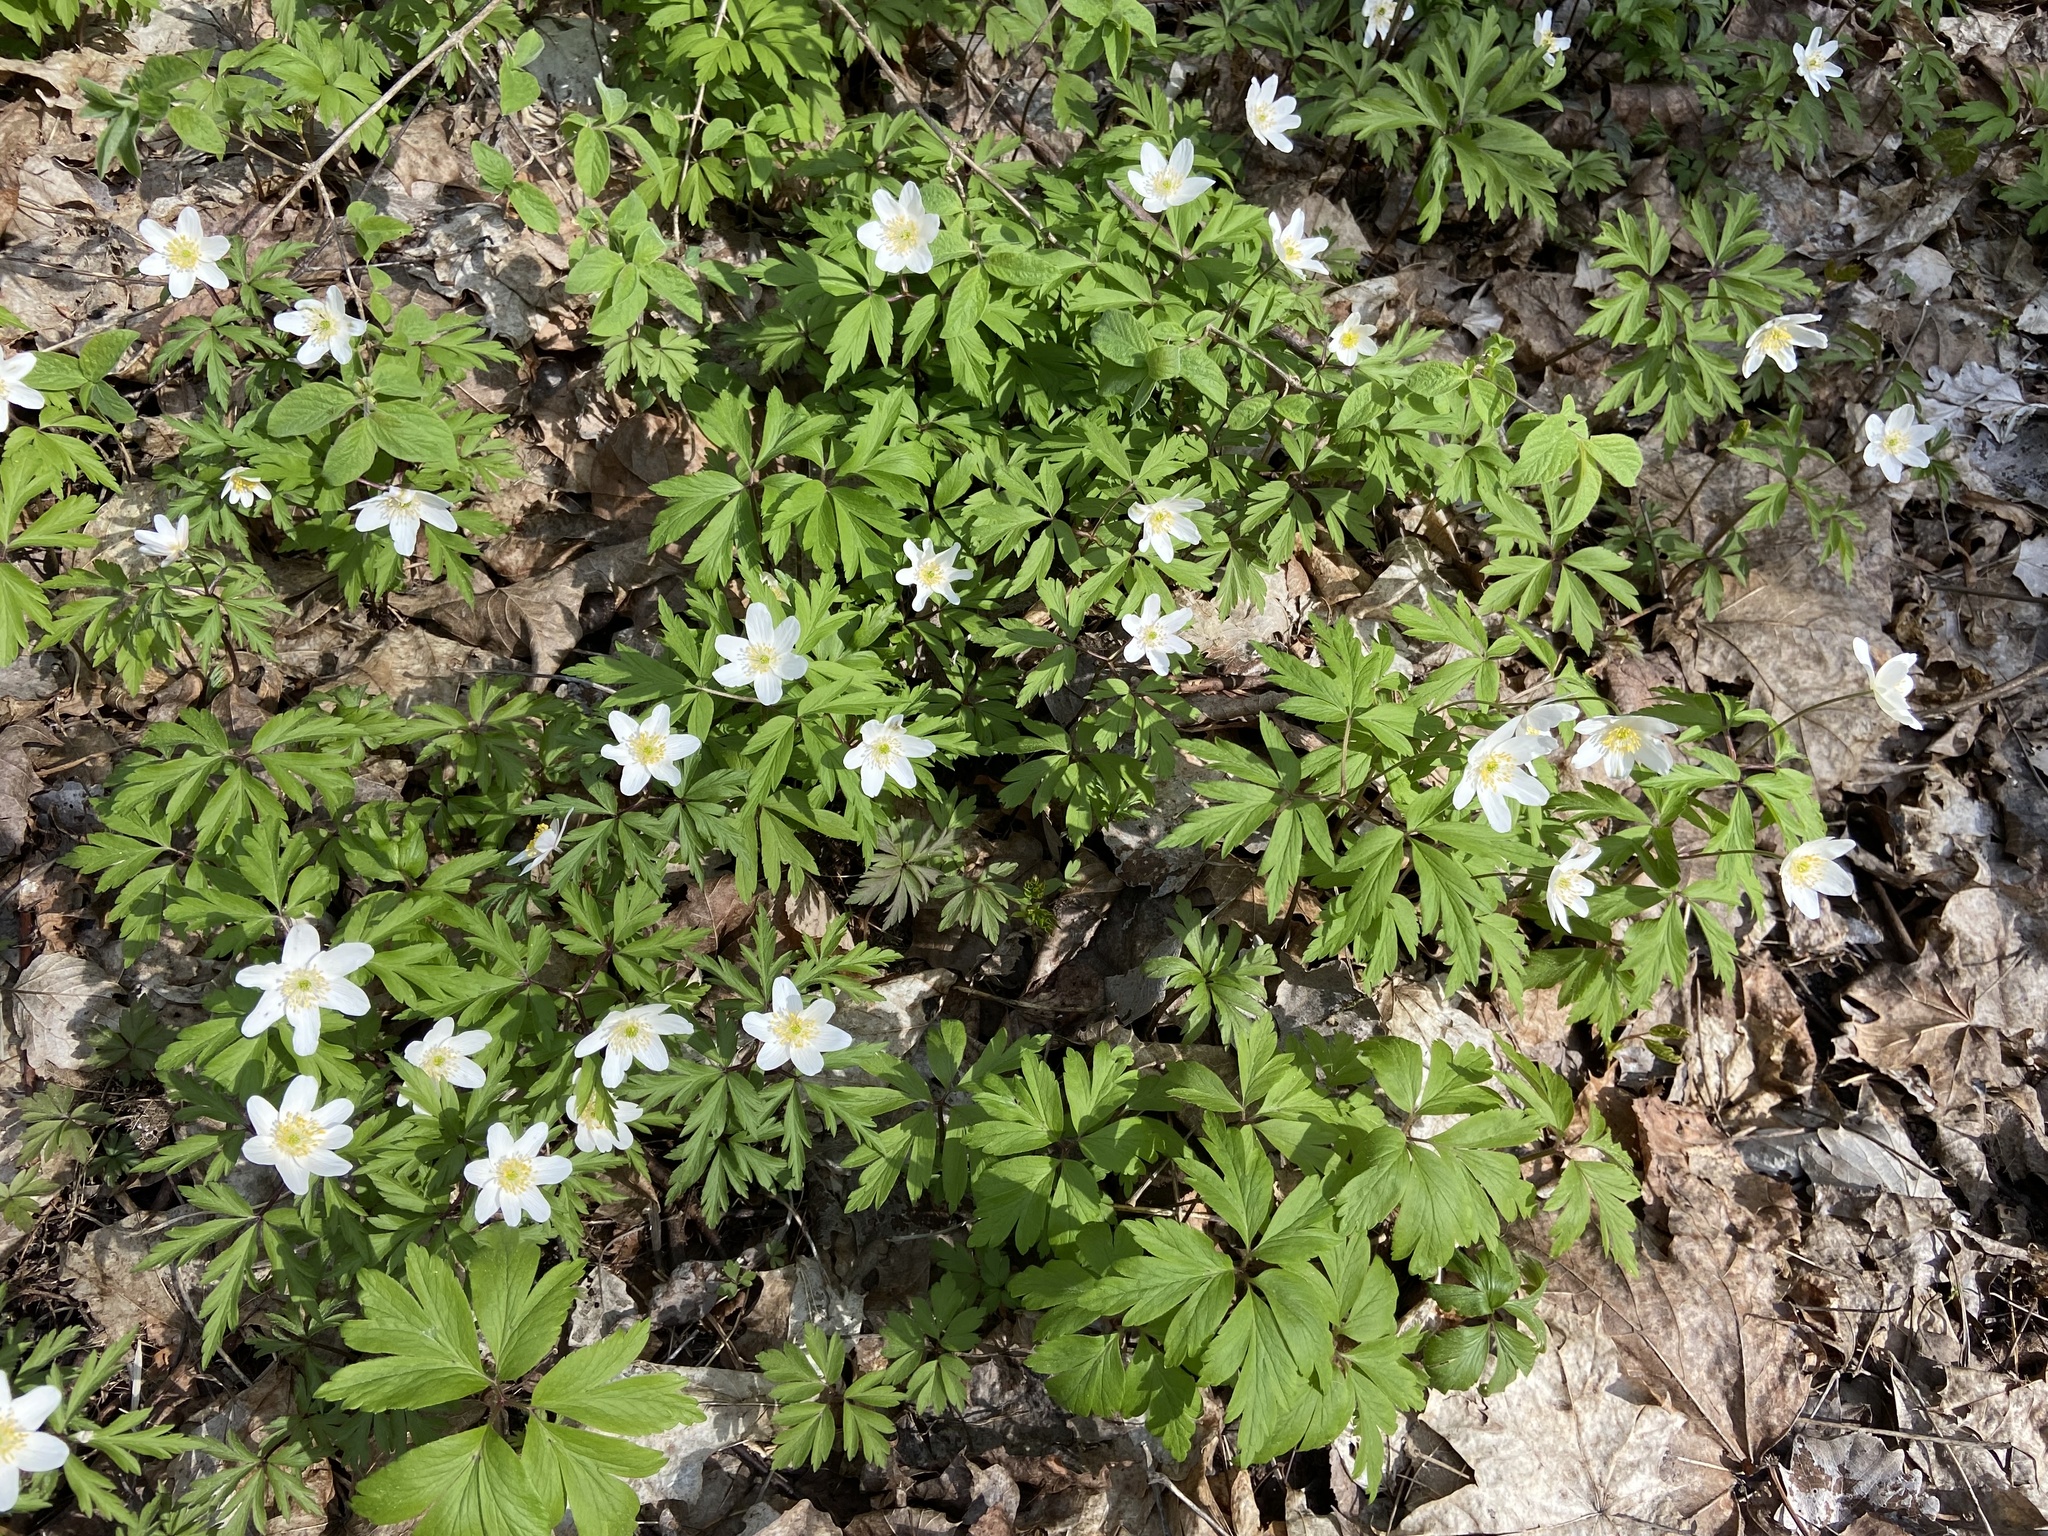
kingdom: Plantae
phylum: Tracheophyta
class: Magnoliopsida
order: Ranunculales
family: Ranunculaceae
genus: Anemone
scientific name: Anemone nemorosa
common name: Wood anemone
